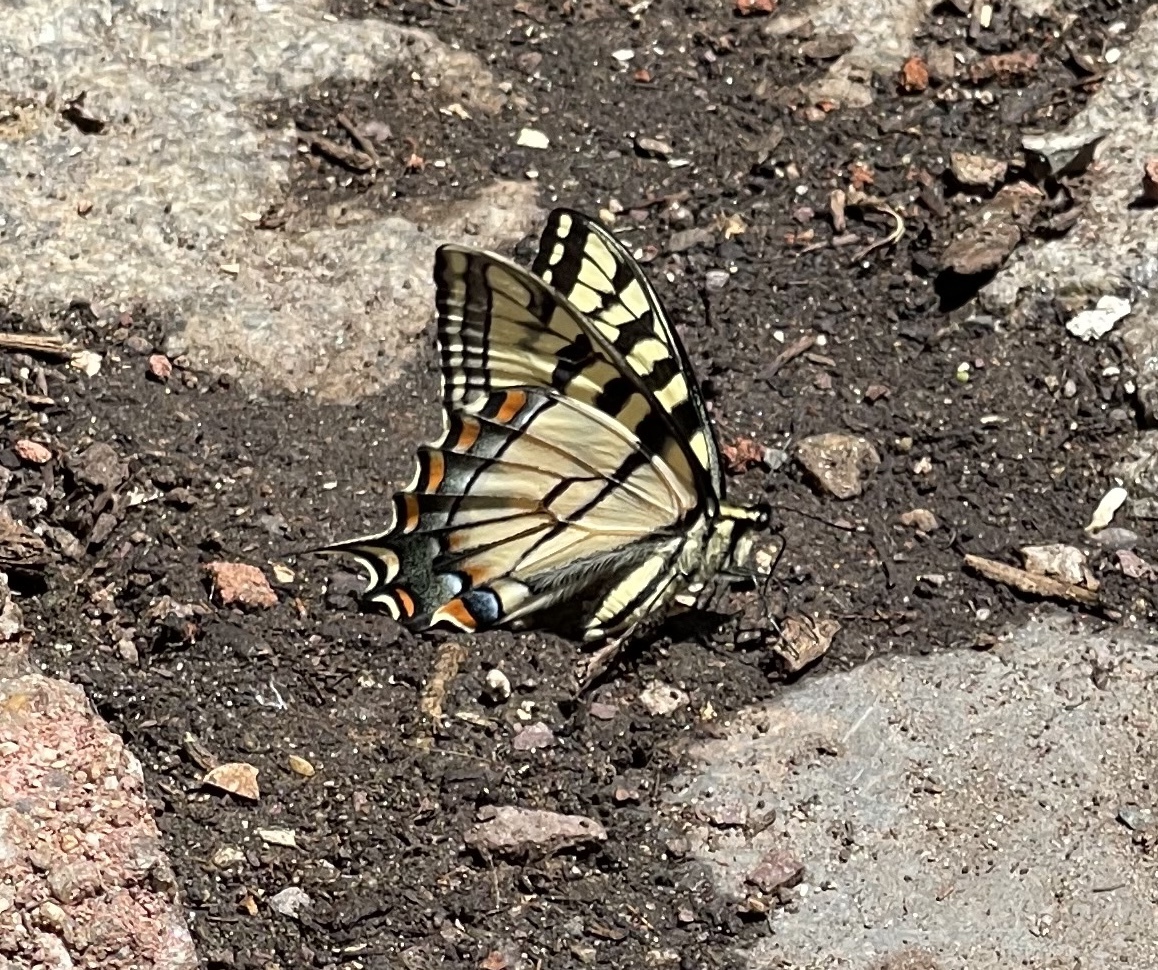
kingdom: Animalia
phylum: Arthropoda
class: Insecta
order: Lepidoptera
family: Papilionidae
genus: Papilio
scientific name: Papilio glaucus
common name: Tiger swallowtail
